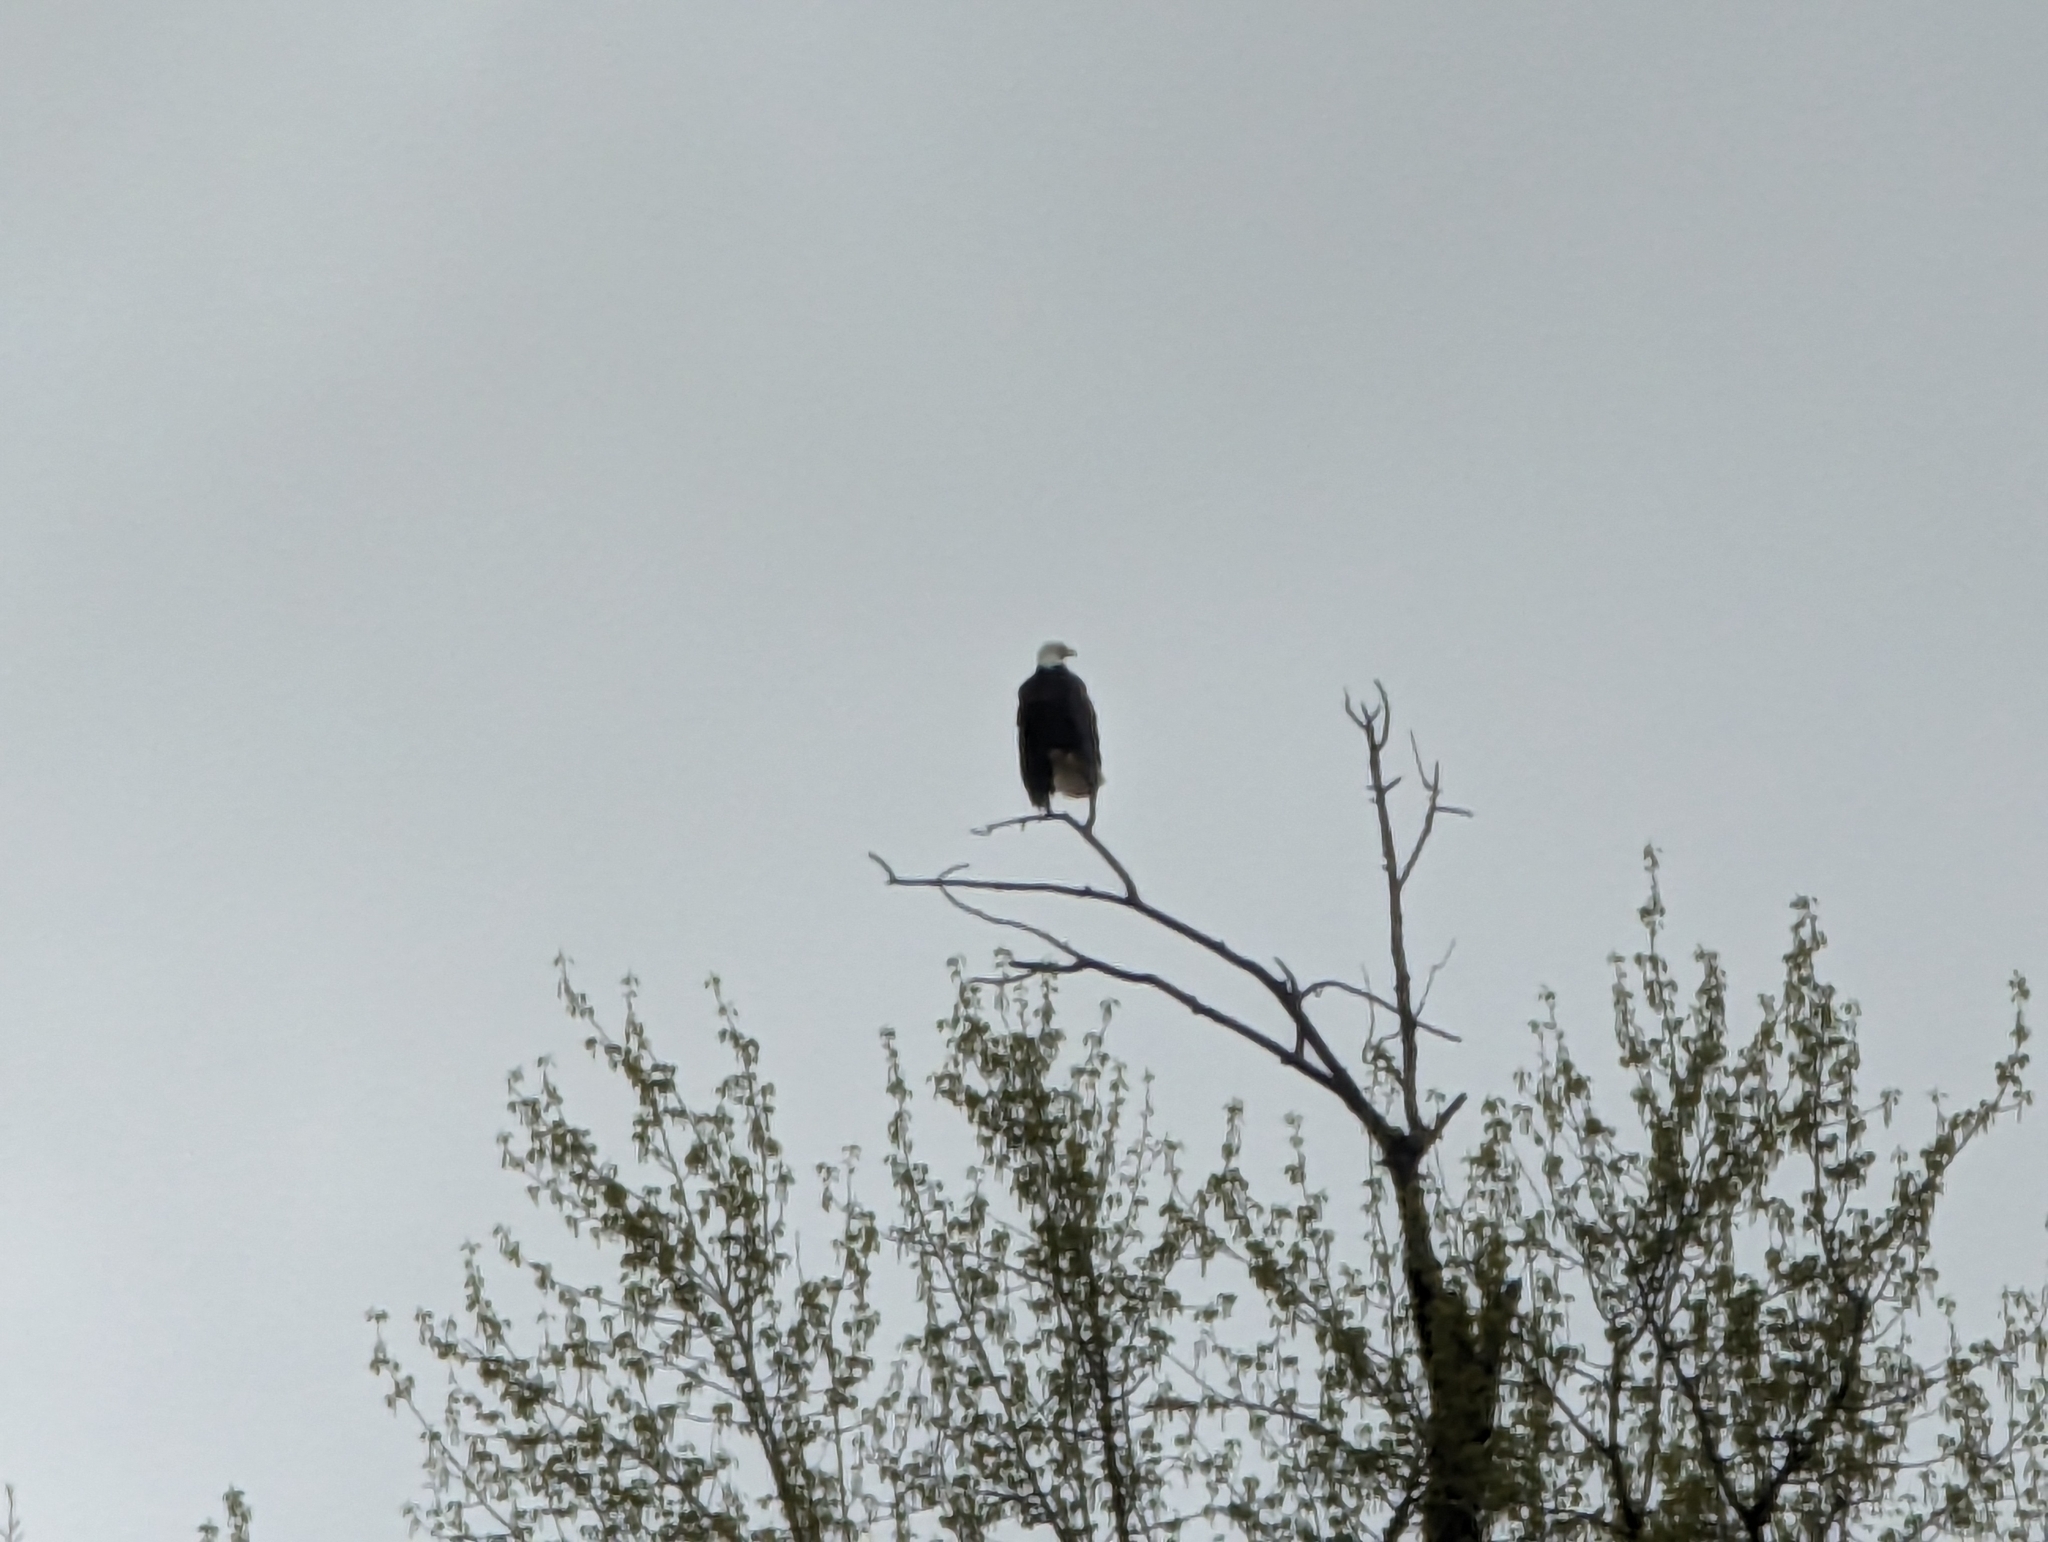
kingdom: Animalia
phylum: Chordata
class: Aves
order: Accipitriformes
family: Accipitridae
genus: Haliaeetus
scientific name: Haliaeetus leucocephalus
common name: Bald eagle
